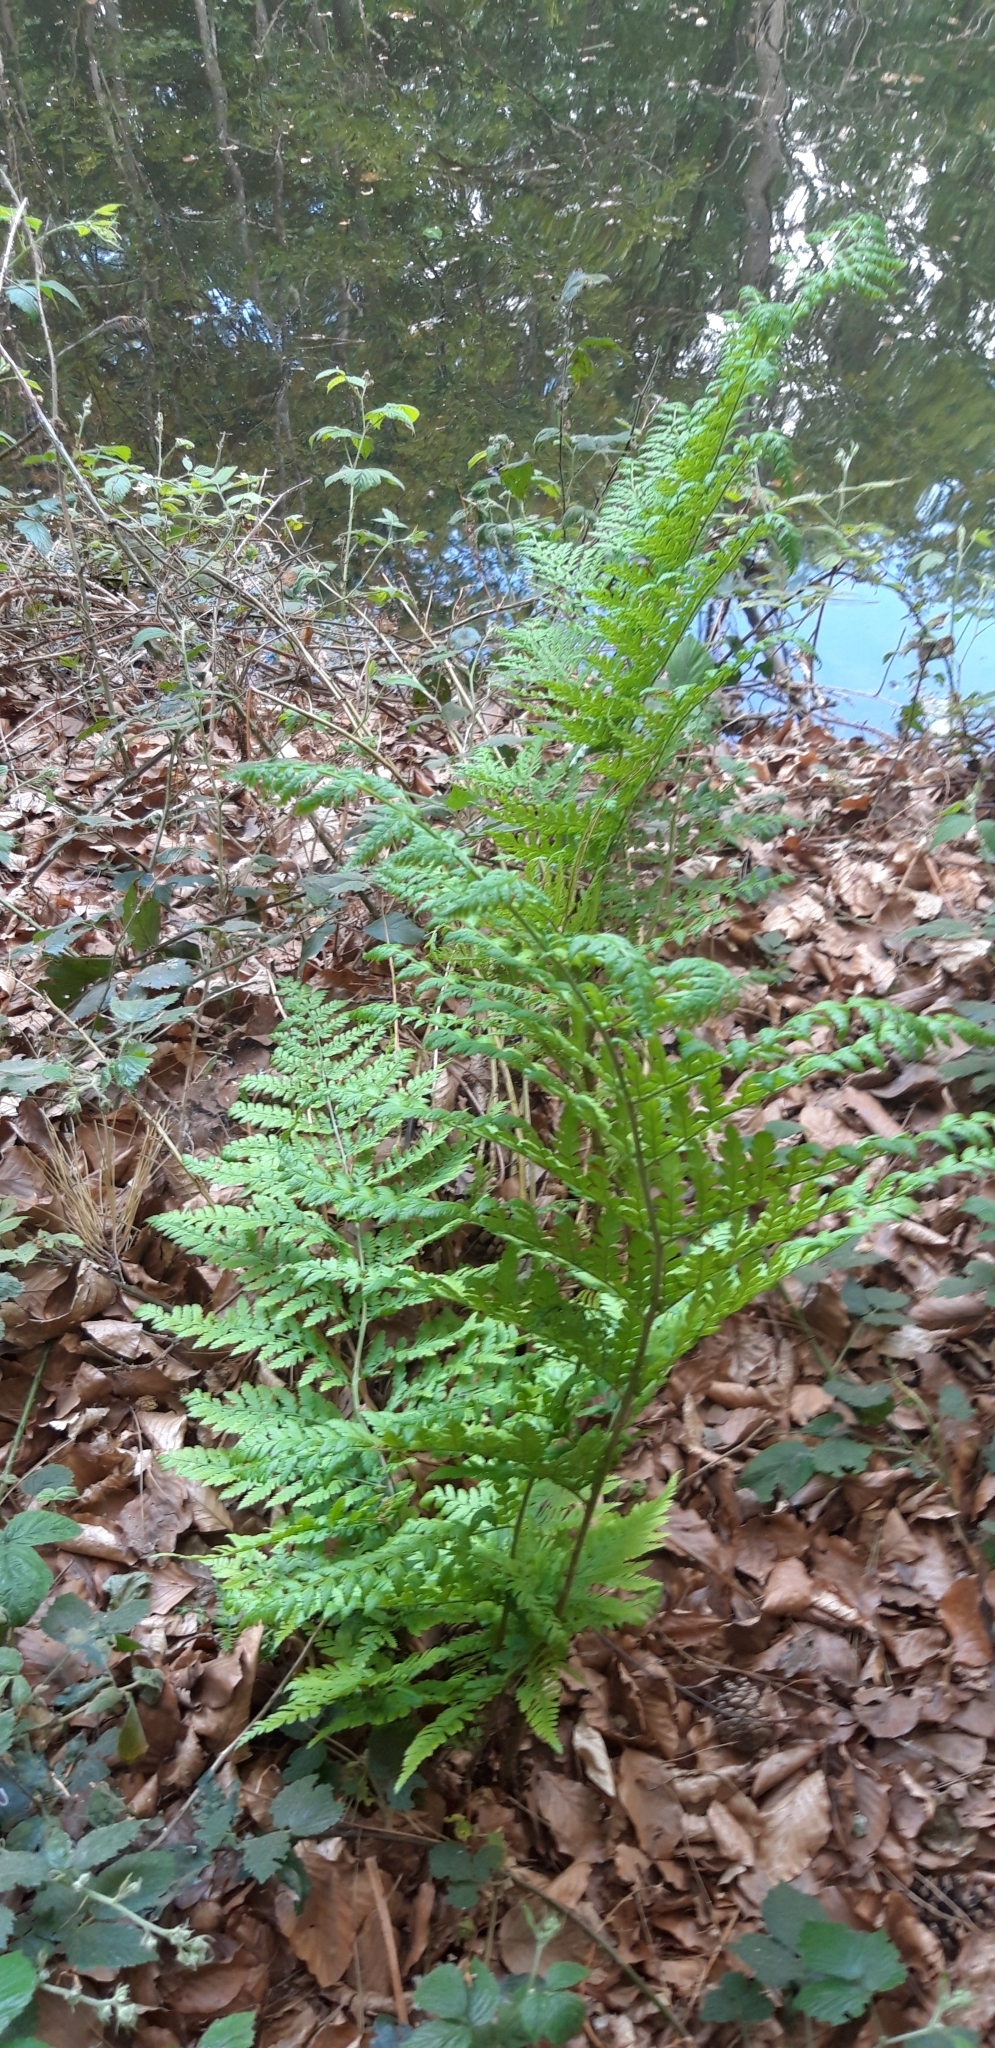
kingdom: Plantae
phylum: Tracheophyta
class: Polypodiopsida
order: Polypodiales
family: Dryopteridaceae
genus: Dryopteris
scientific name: Dryopteris dilatata
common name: Broad buckler-fern
